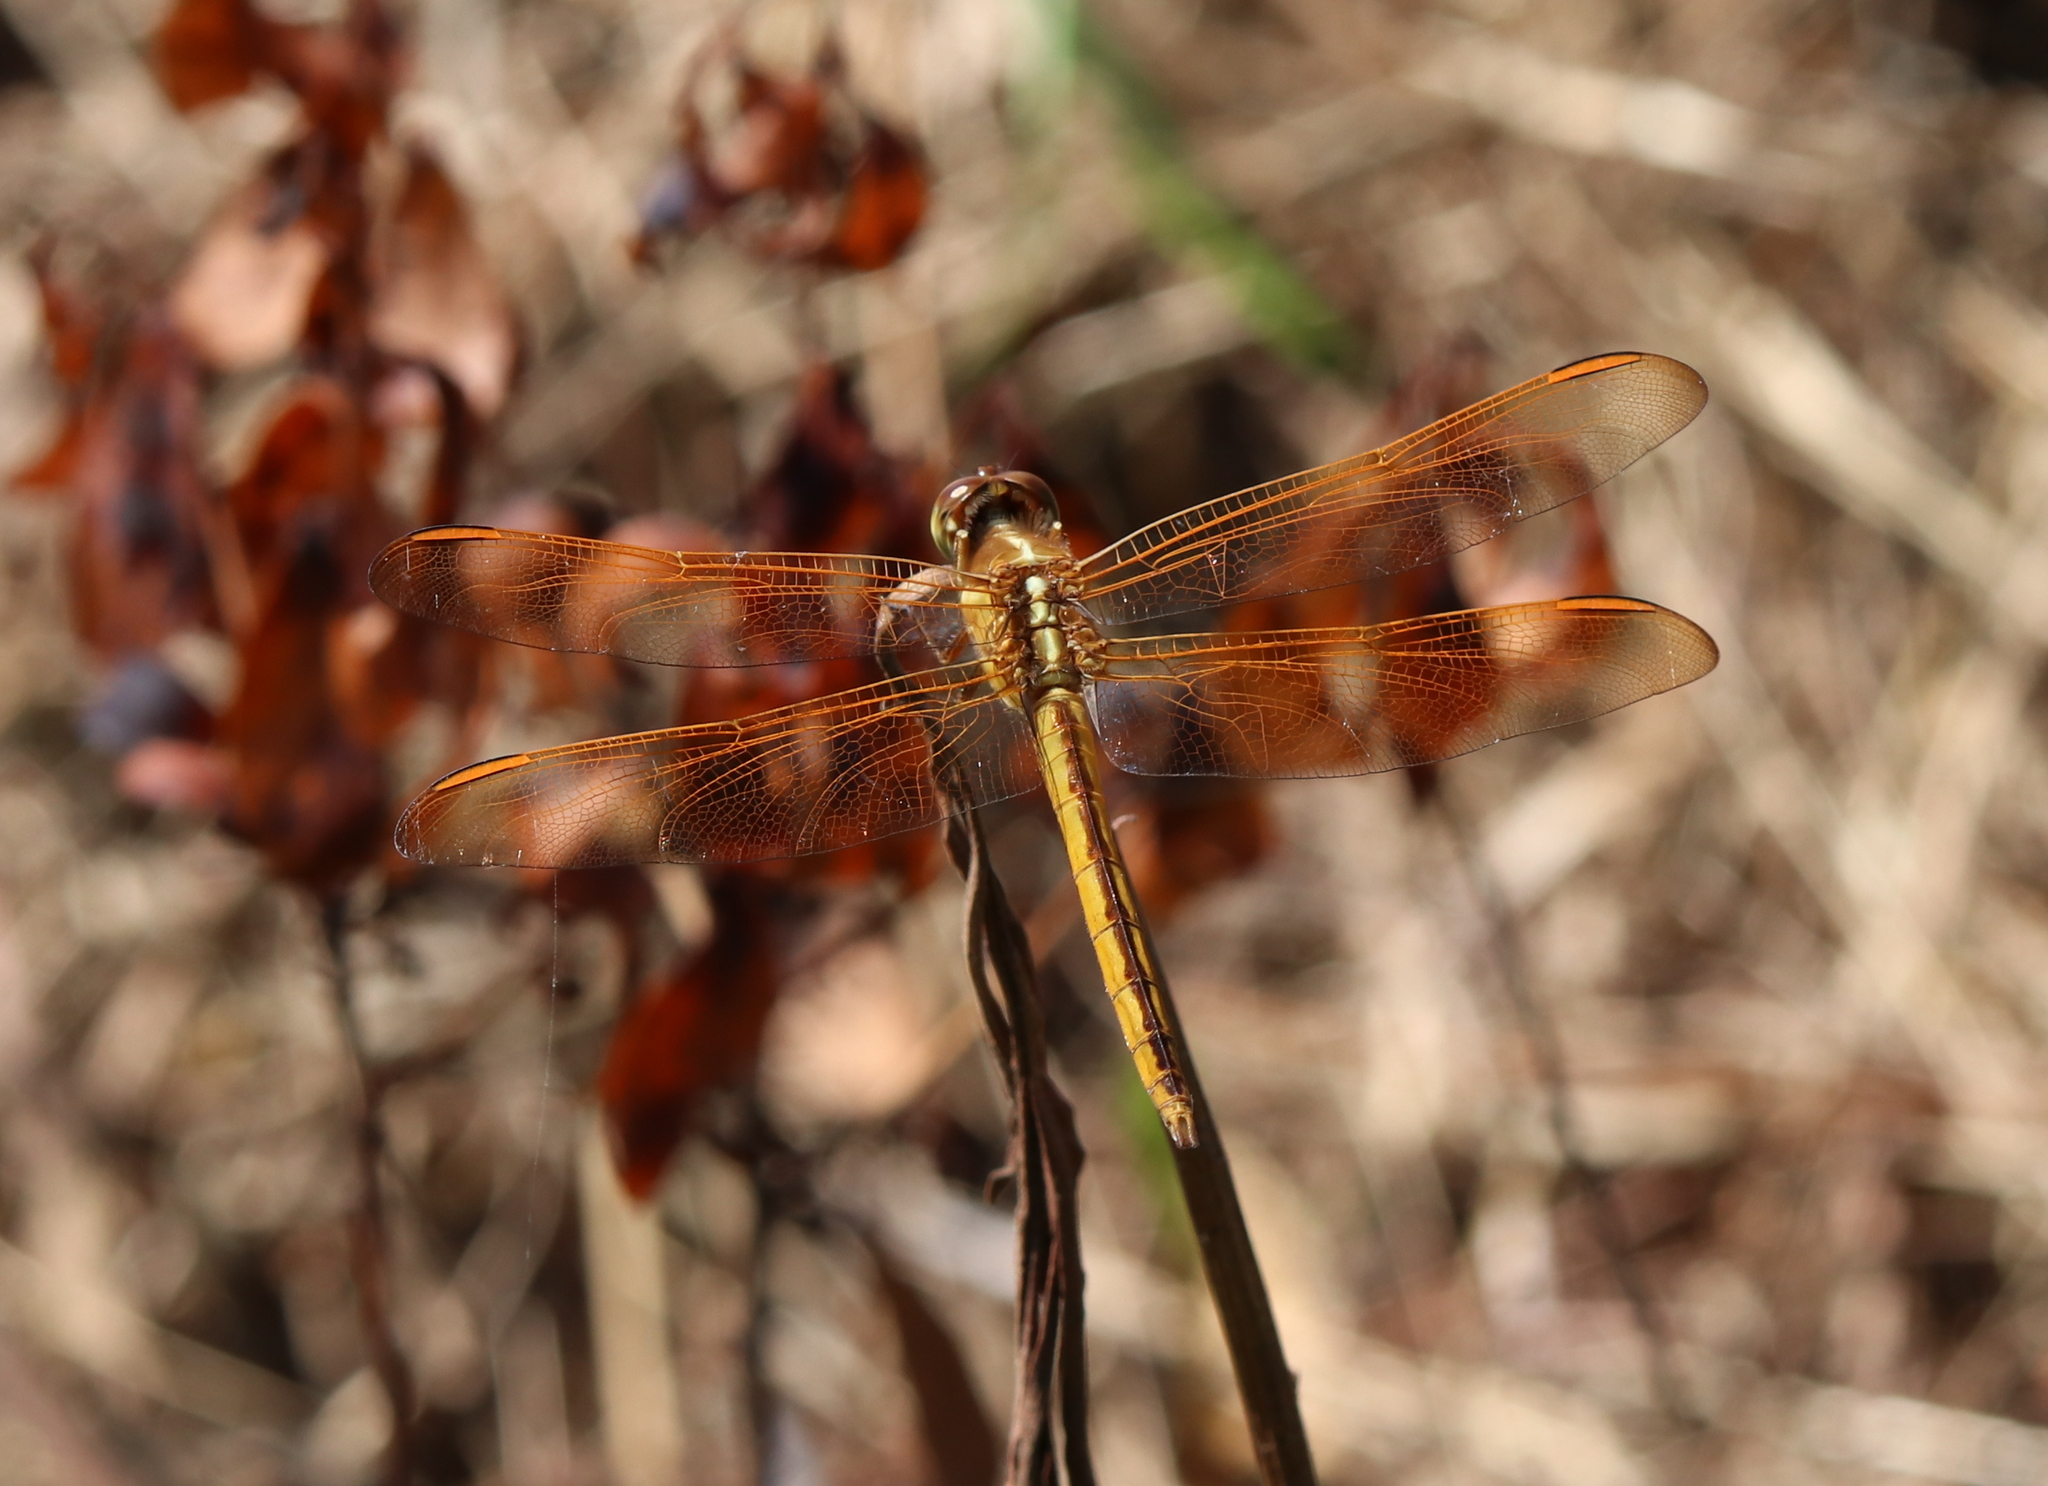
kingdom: Animalia
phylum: Arthropoda
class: Insecta
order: Odonata
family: Libellulidae
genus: Libellula
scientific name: Libellula auripennis
